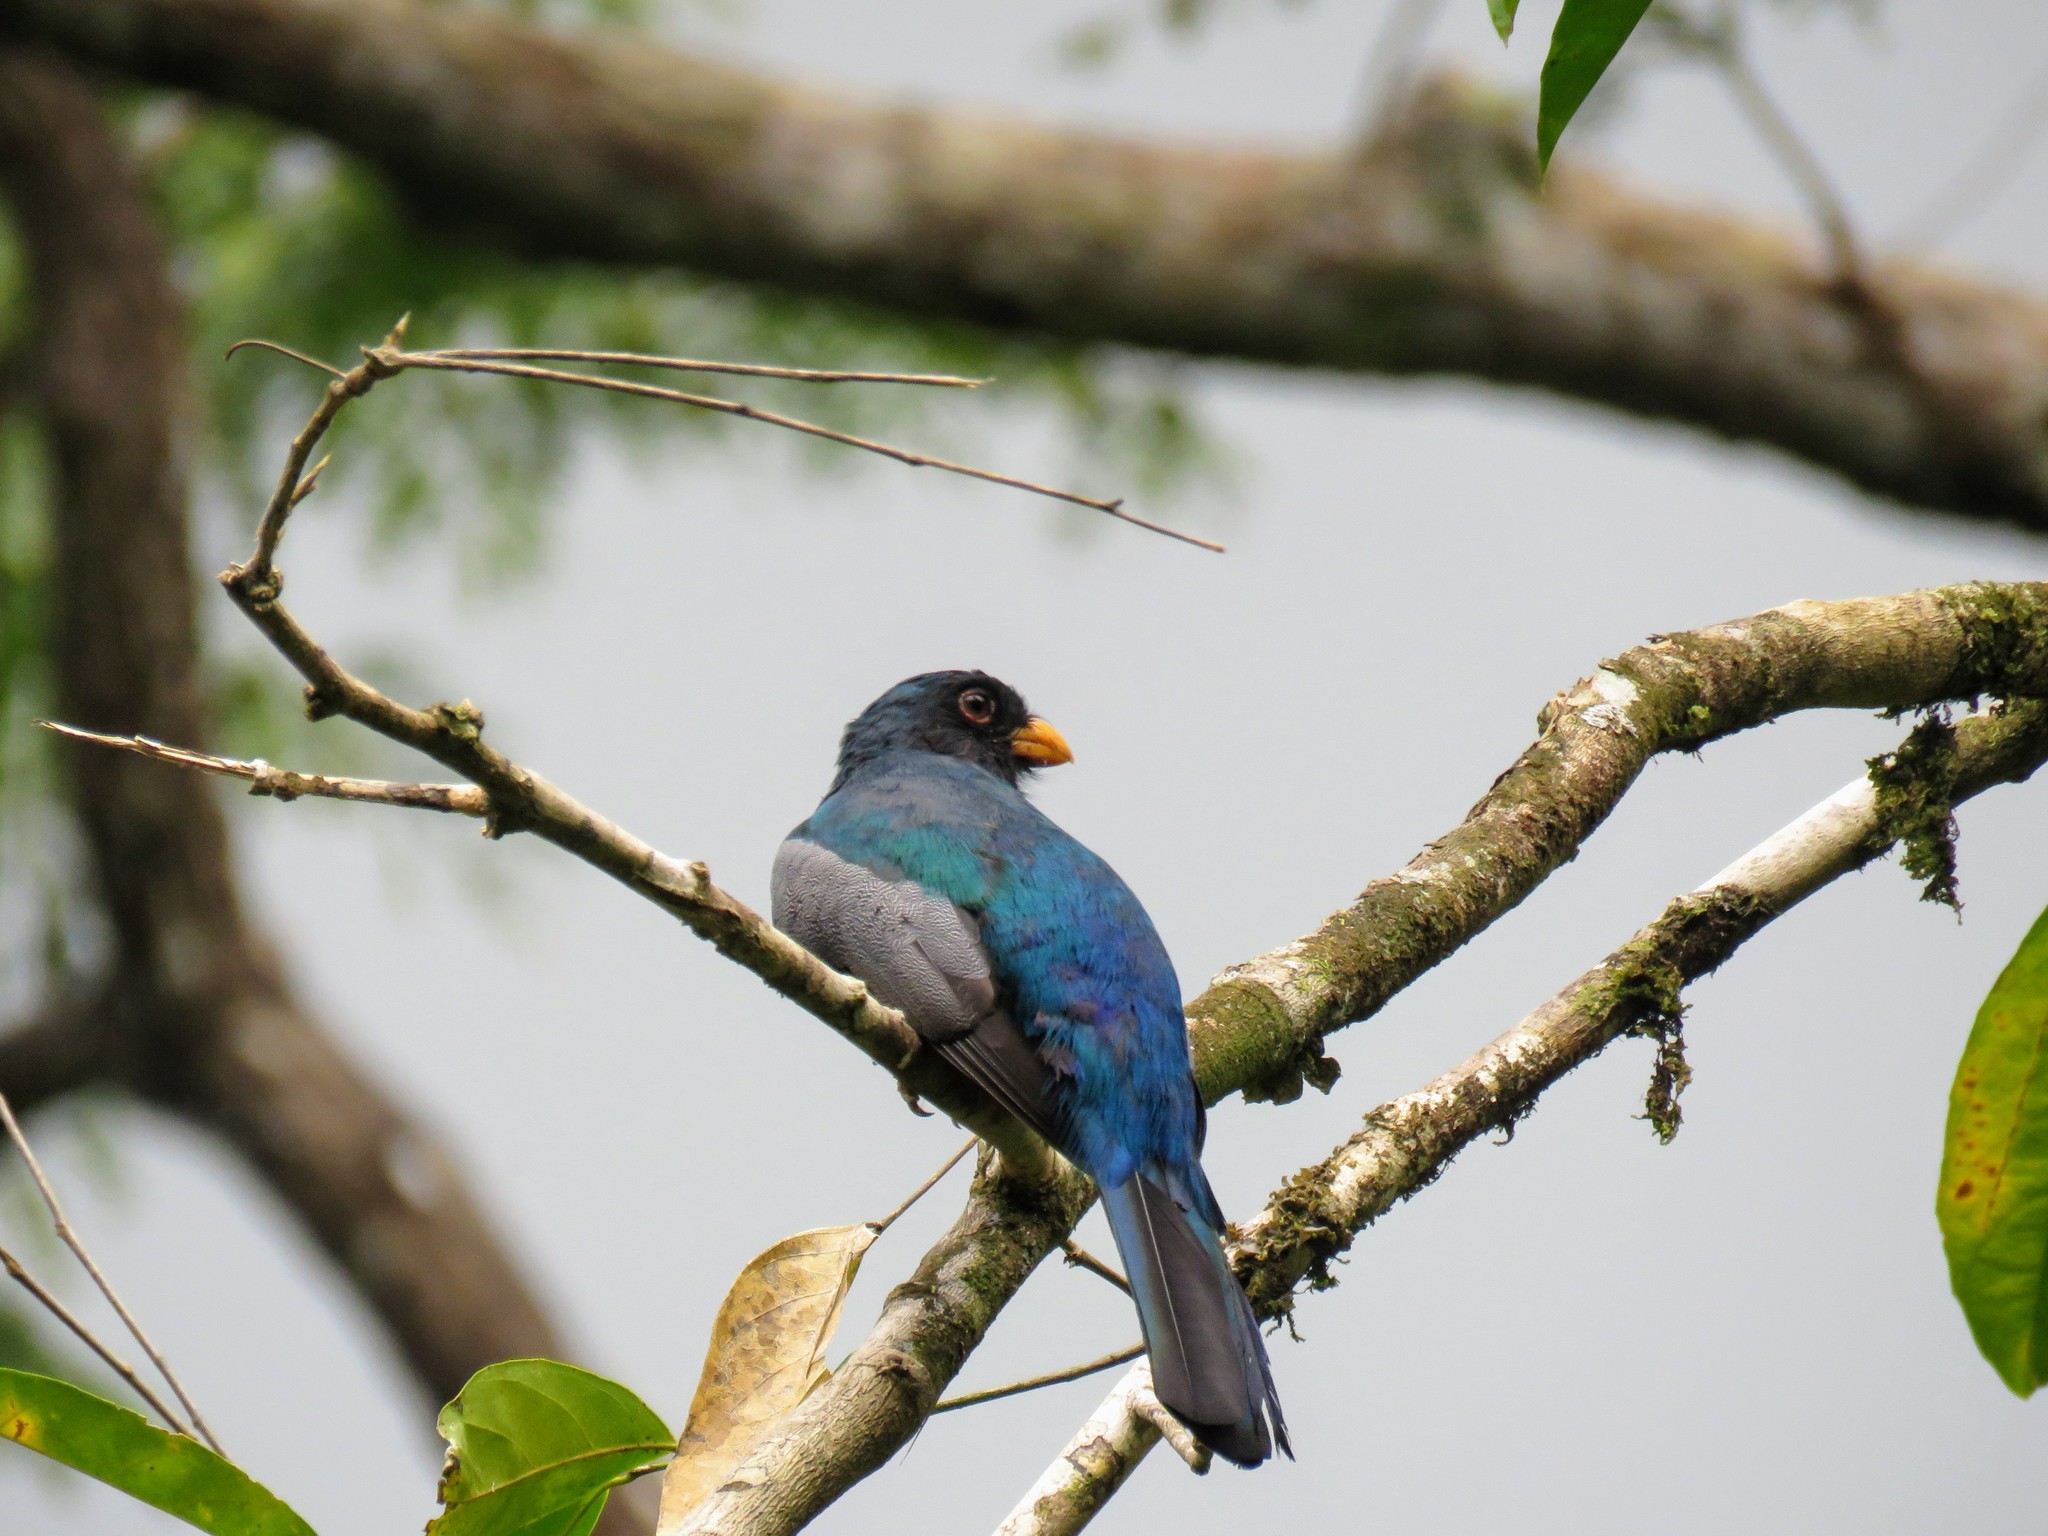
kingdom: Animalia
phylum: Chordata
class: Aves
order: Trogoniformes
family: Trogonidae
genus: Trogon
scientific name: Trogon melanurus
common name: Black-tailed trogon
